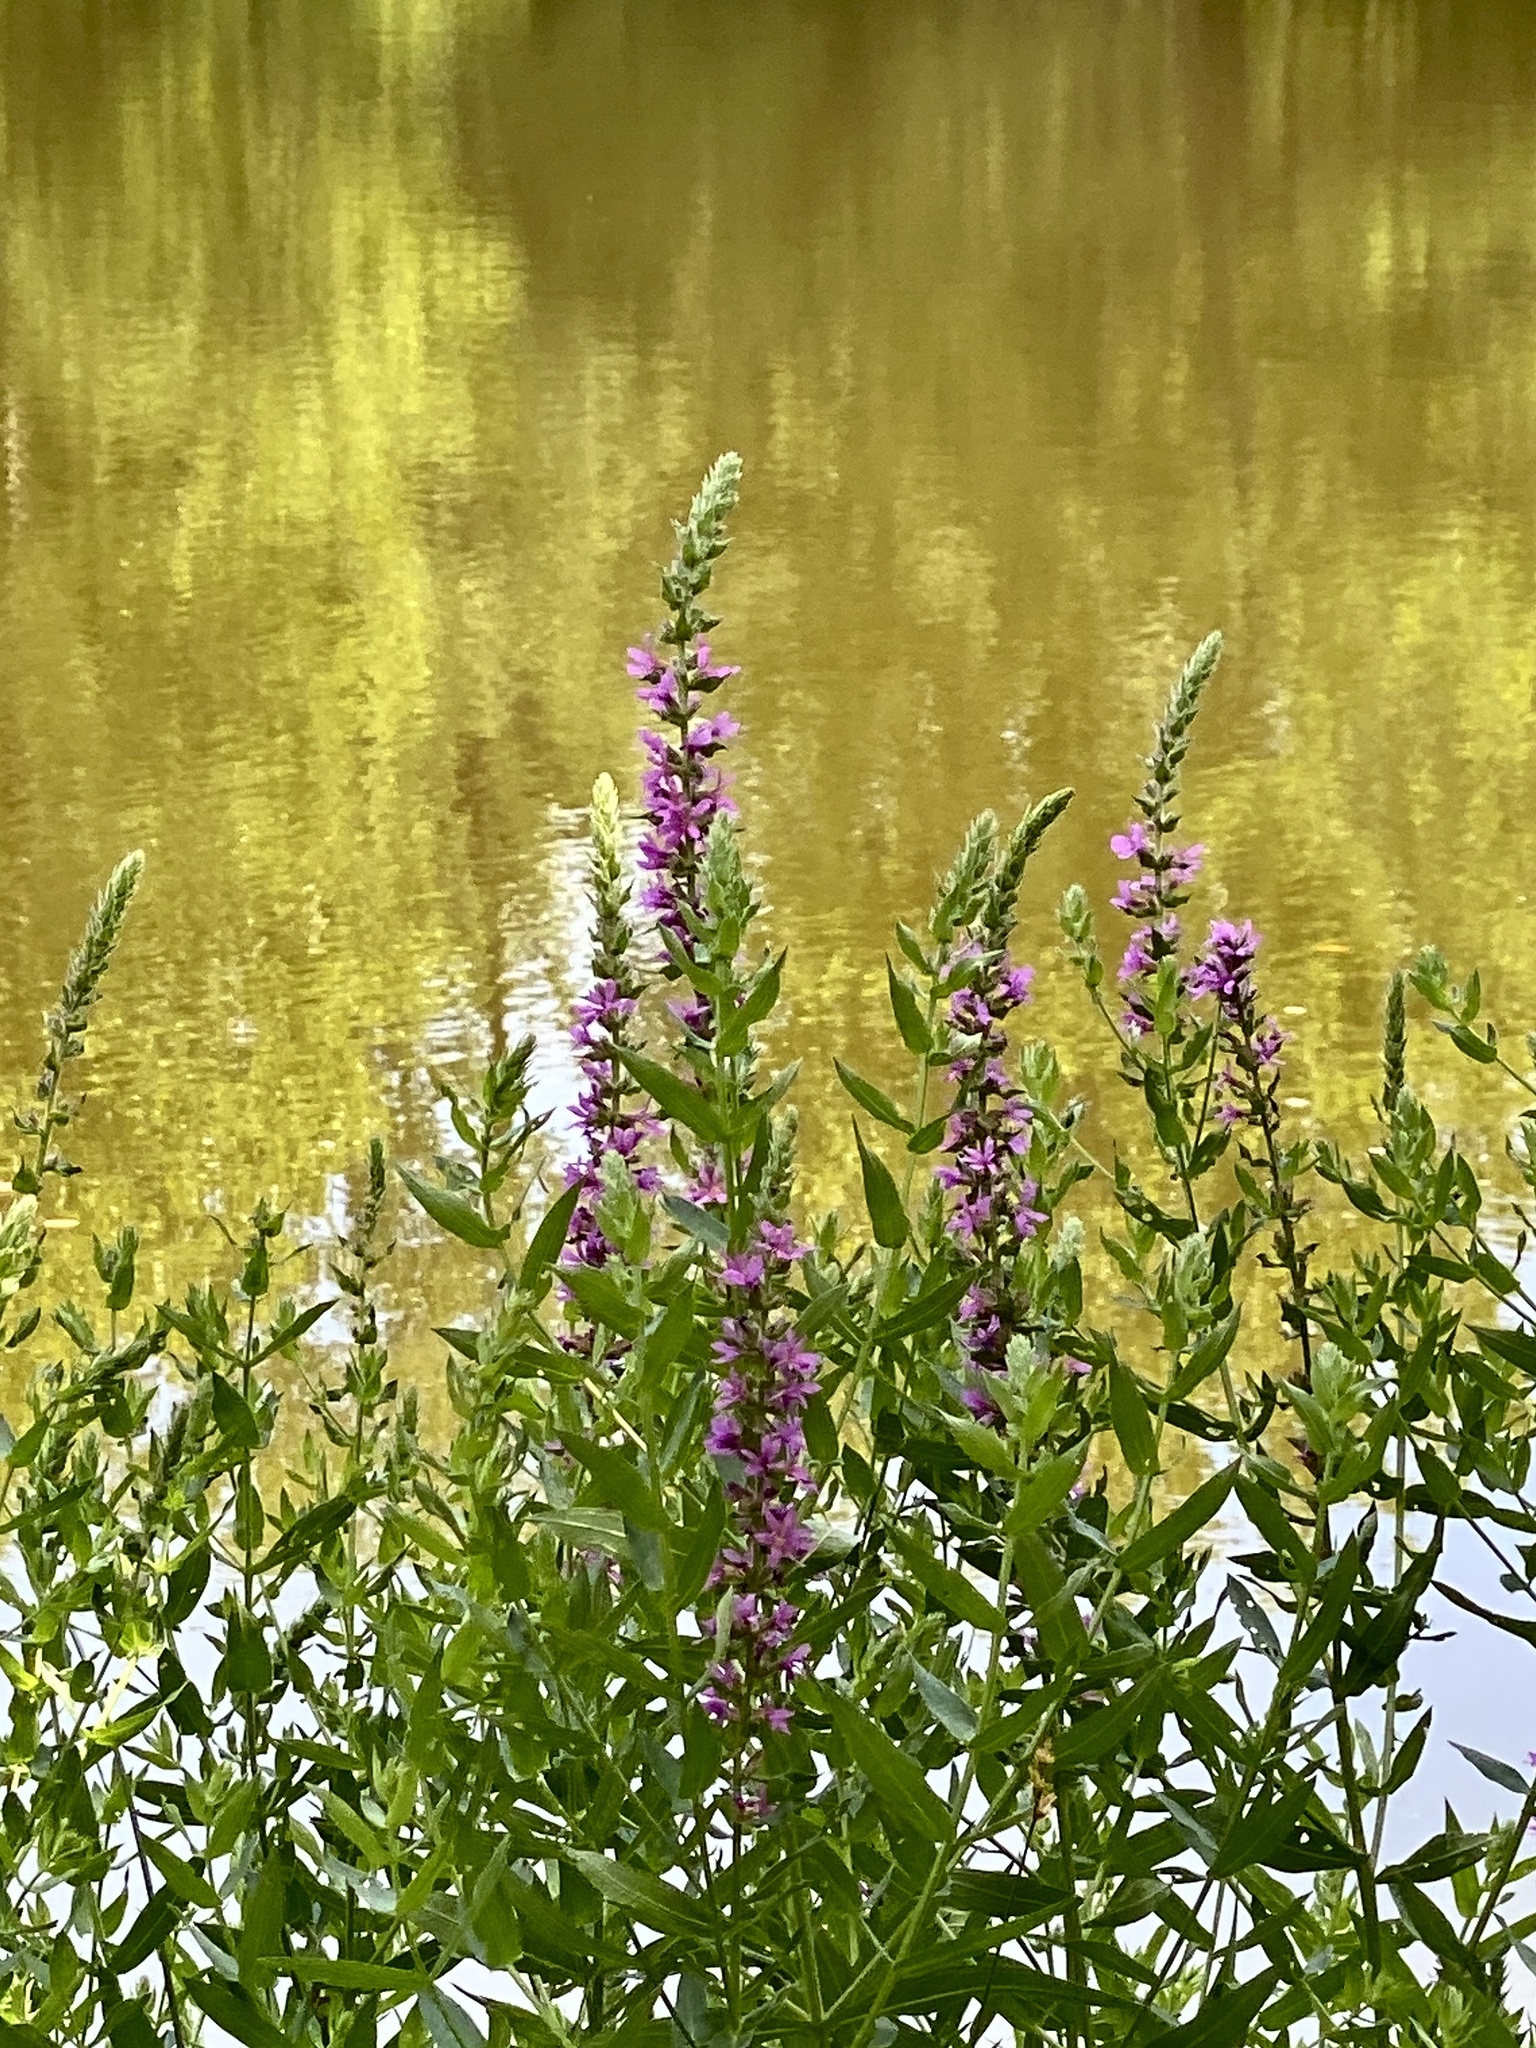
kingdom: Plantae
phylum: Tracheophyta
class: Magnoliopsida
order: Myrtales
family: Lythraceae
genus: Lythrum
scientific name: Lythrum salicaria
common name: Purple loosestrife
